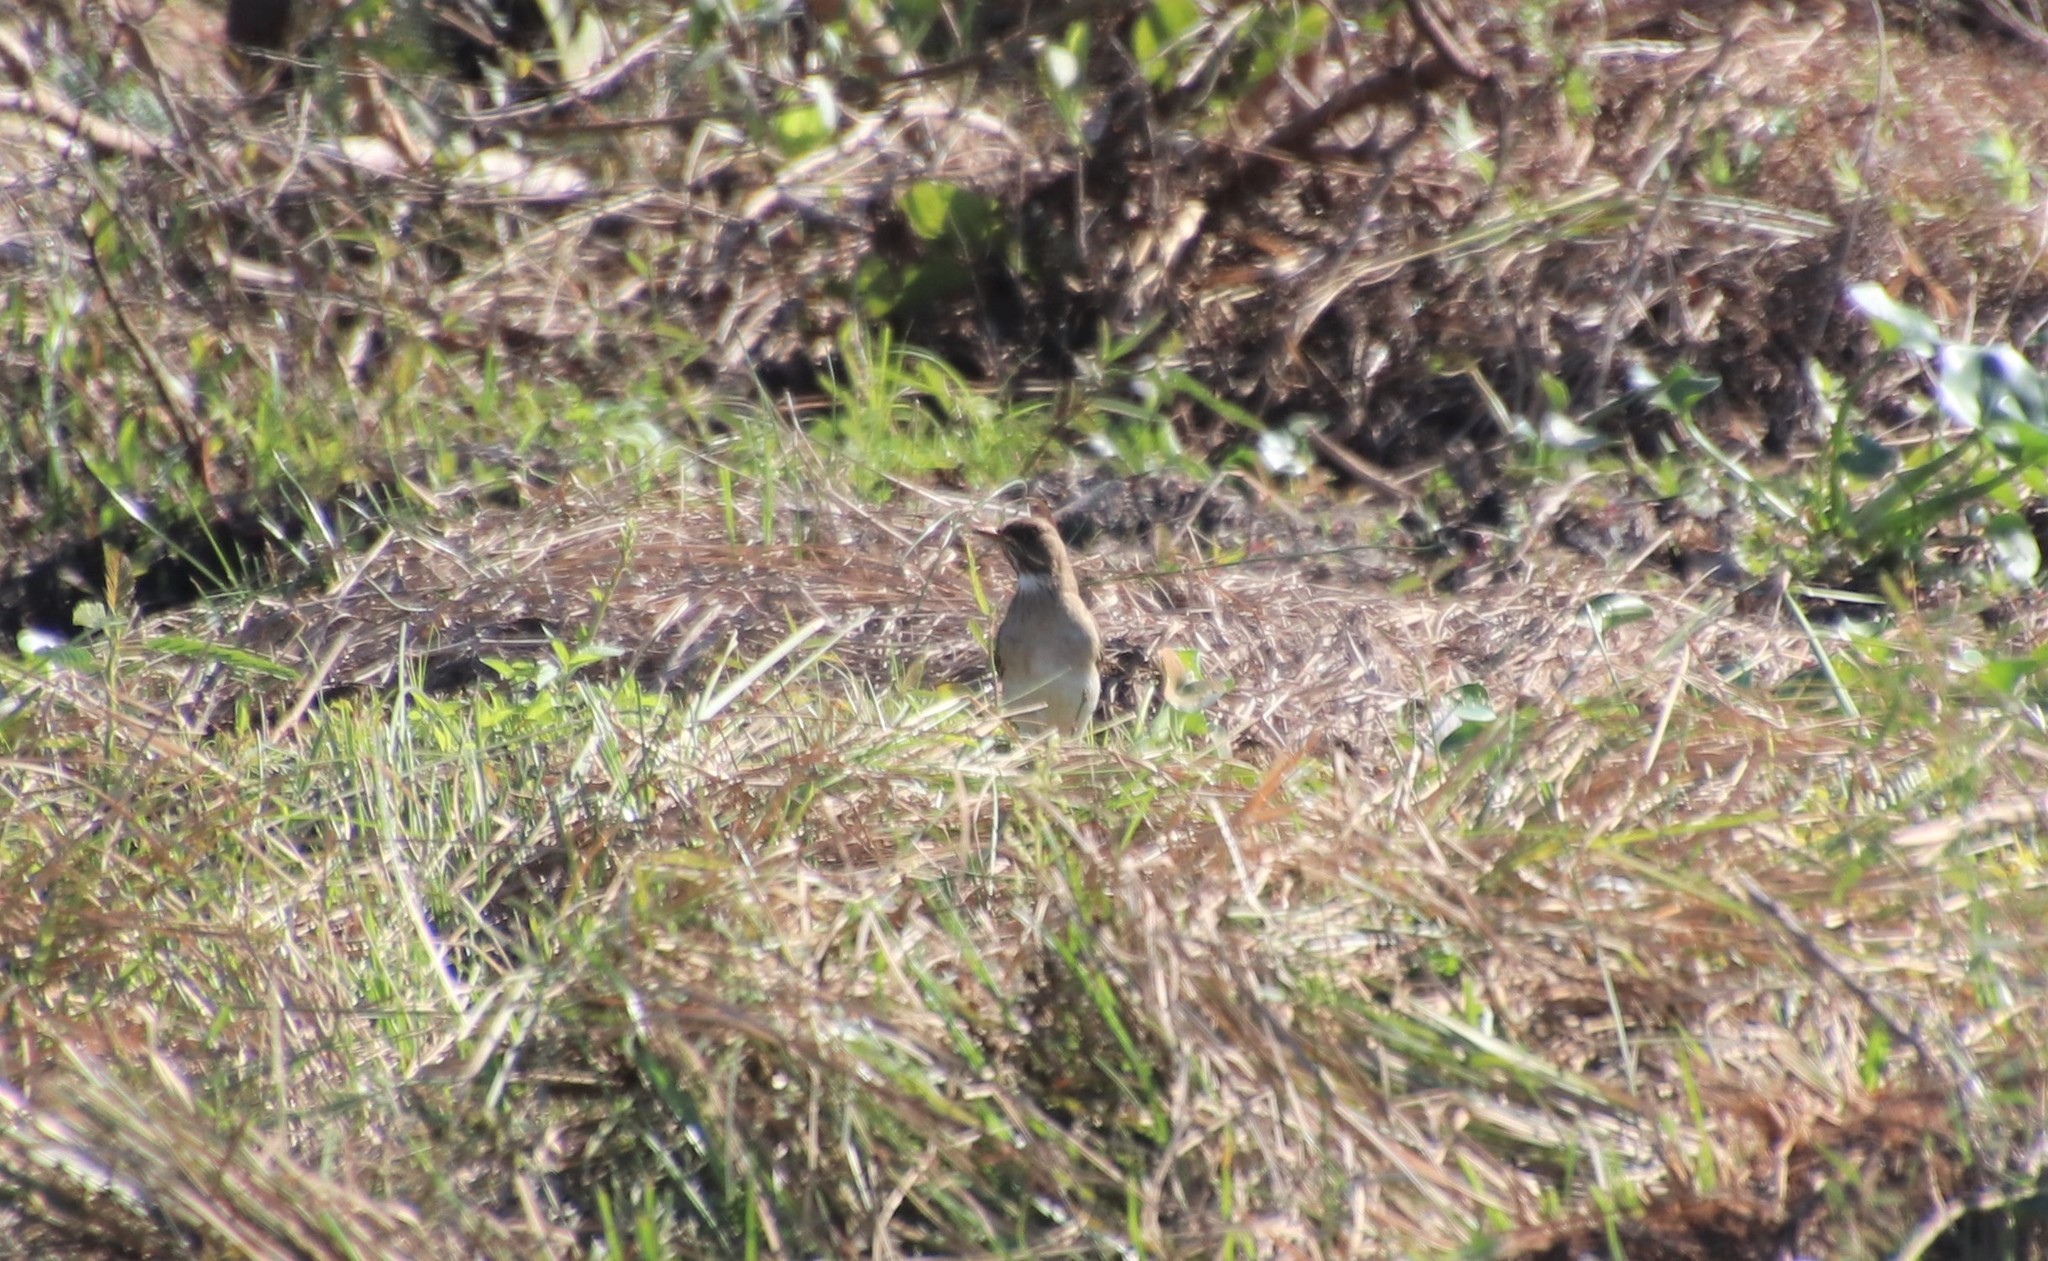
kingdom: Animalia
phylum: Chordata
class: Aves
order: Passeriformes
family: Turdidae
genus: Turdus
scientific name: Turdus amaurochalinus
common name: Creamy-bellied thrush
